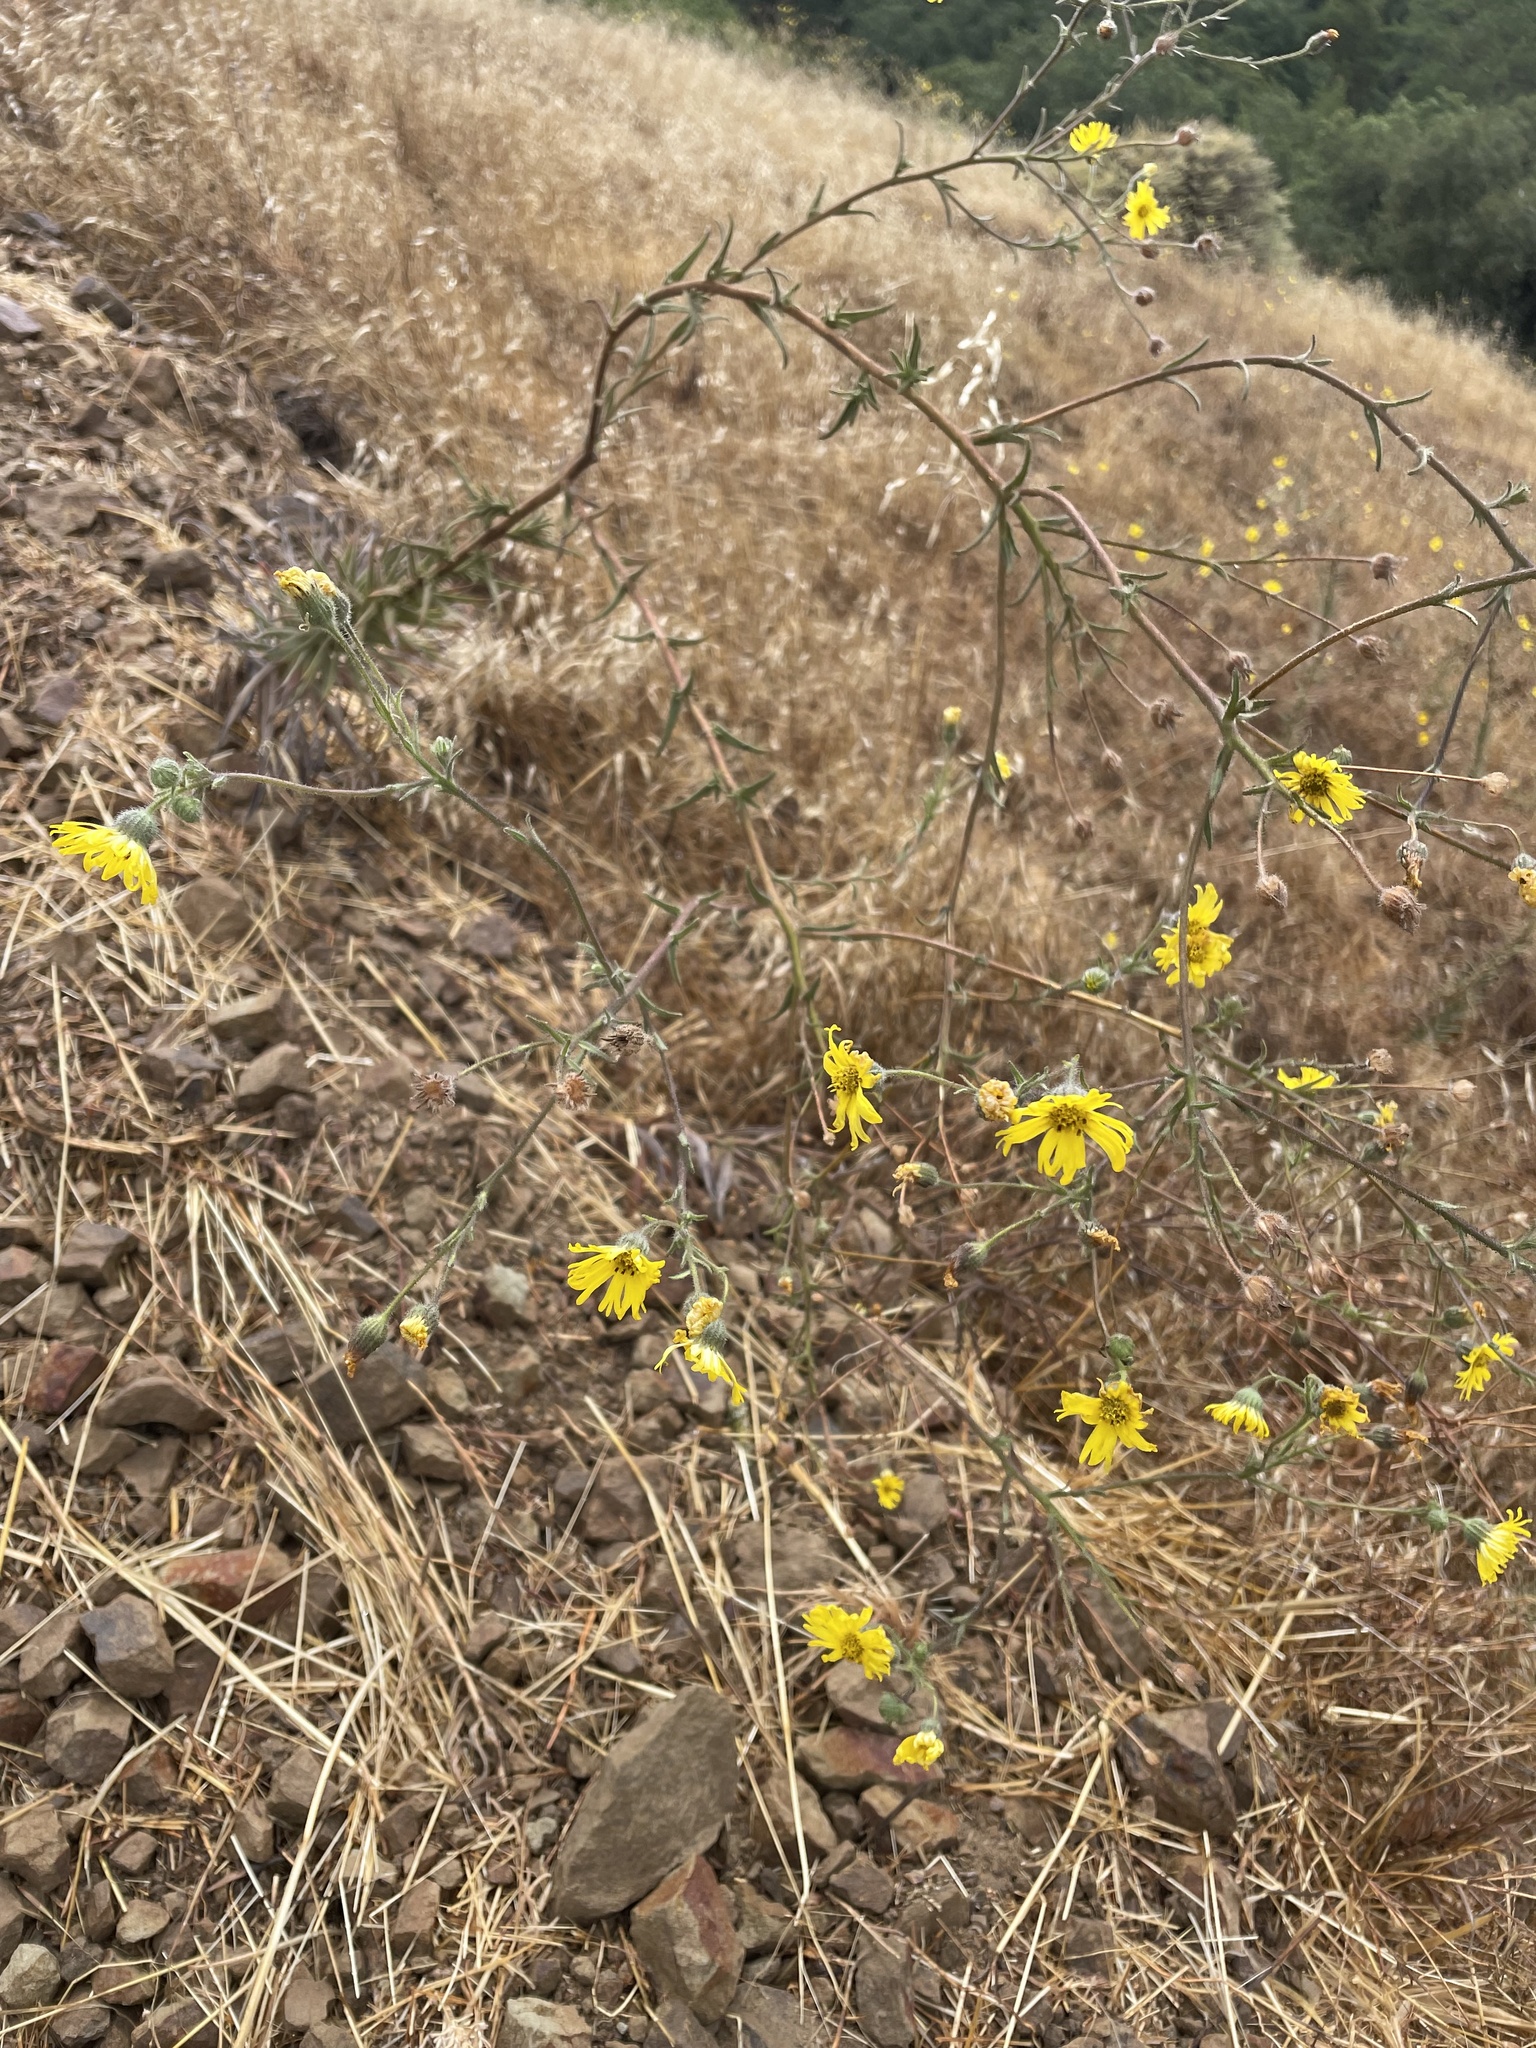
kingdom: Plantae
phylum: Tracheophyta
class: Magnoliopsida
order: Asterales
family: Asteraceae
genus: Madia
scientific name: Madia elegans
